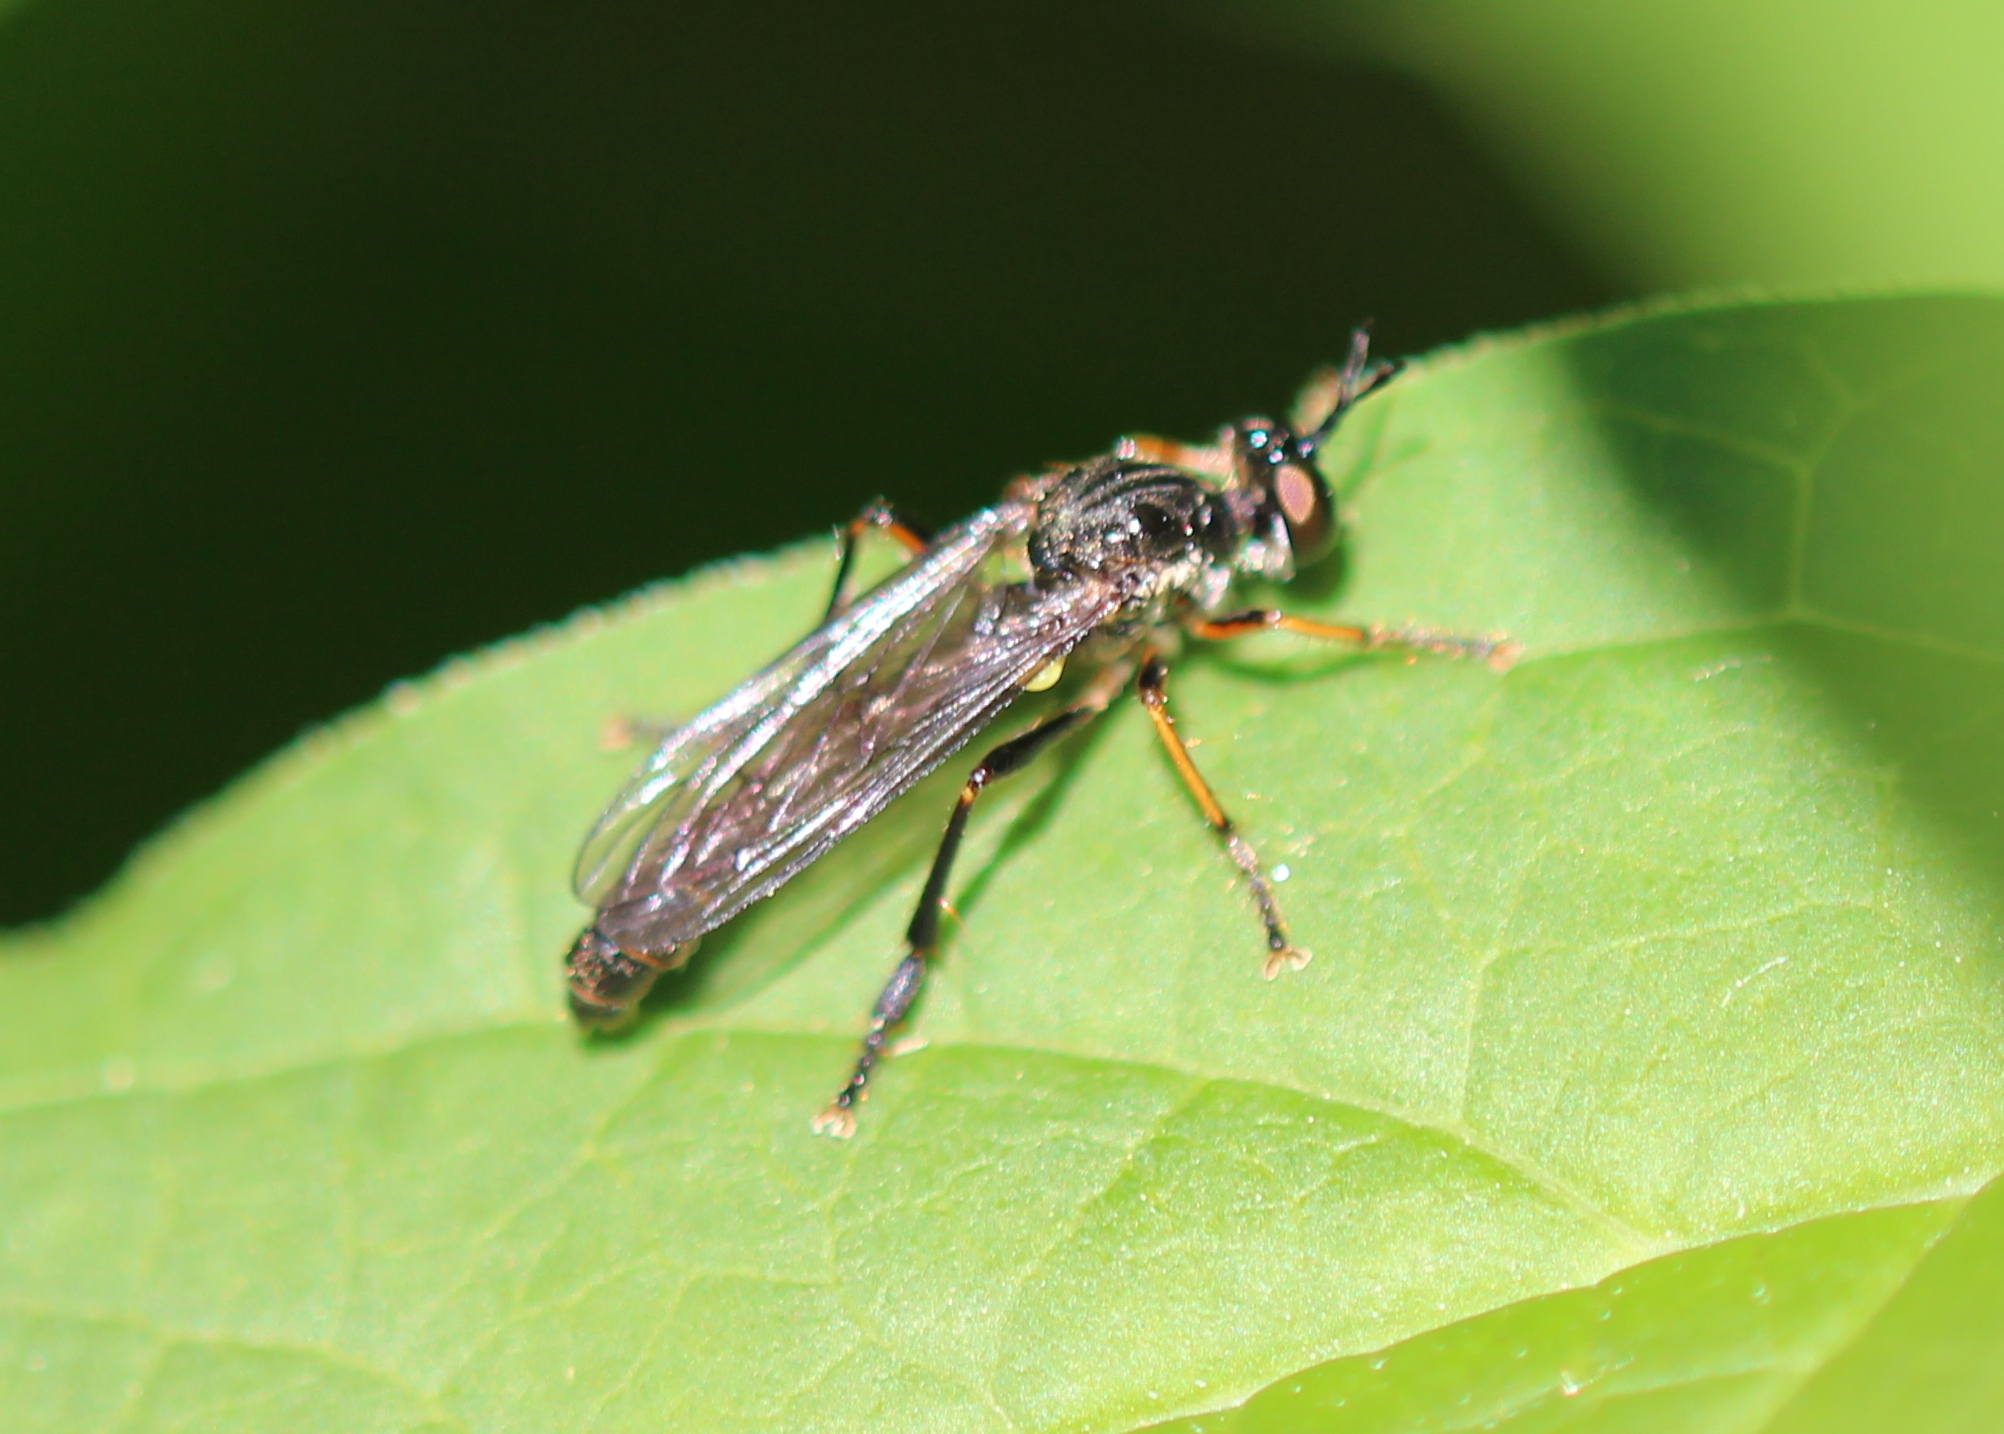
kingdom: Animalia
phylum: Arthropoda
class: Insecta
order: Diptera
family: Asilidae
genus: Dioctria
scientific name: Dioctria hyalipennis
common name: Stripe-legged robberfly
